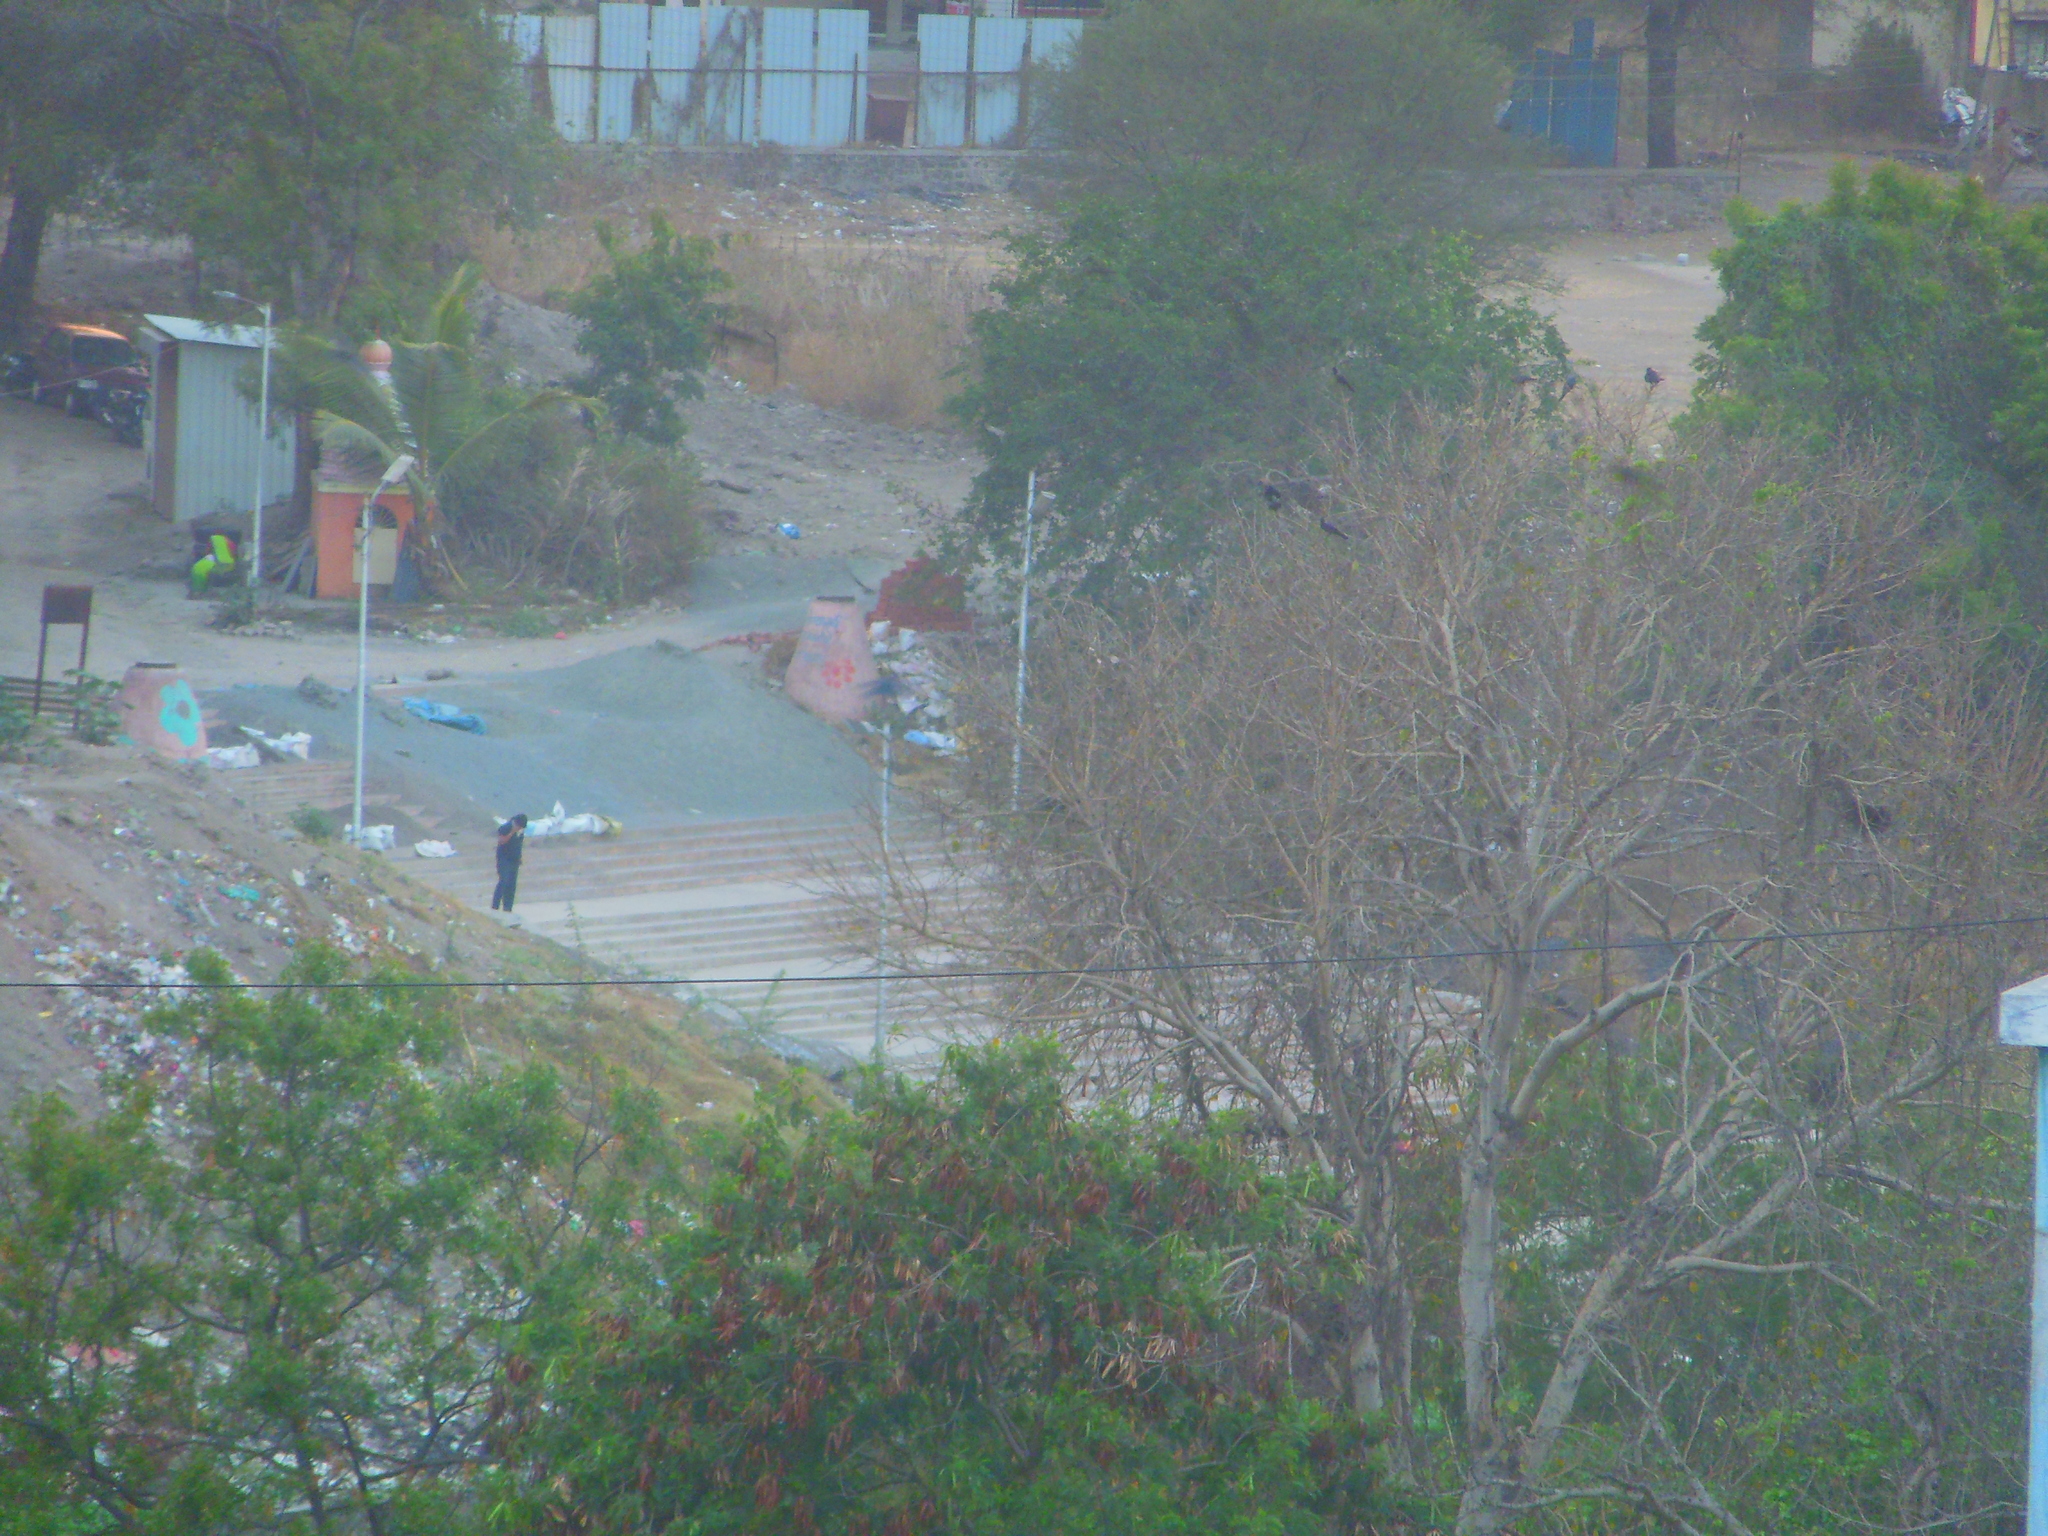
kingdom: Animalia
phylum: Chordata
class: Aves
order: Passeriformes
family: Corvidae
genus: Corvus
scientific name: Corvus splendens
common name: House crow
